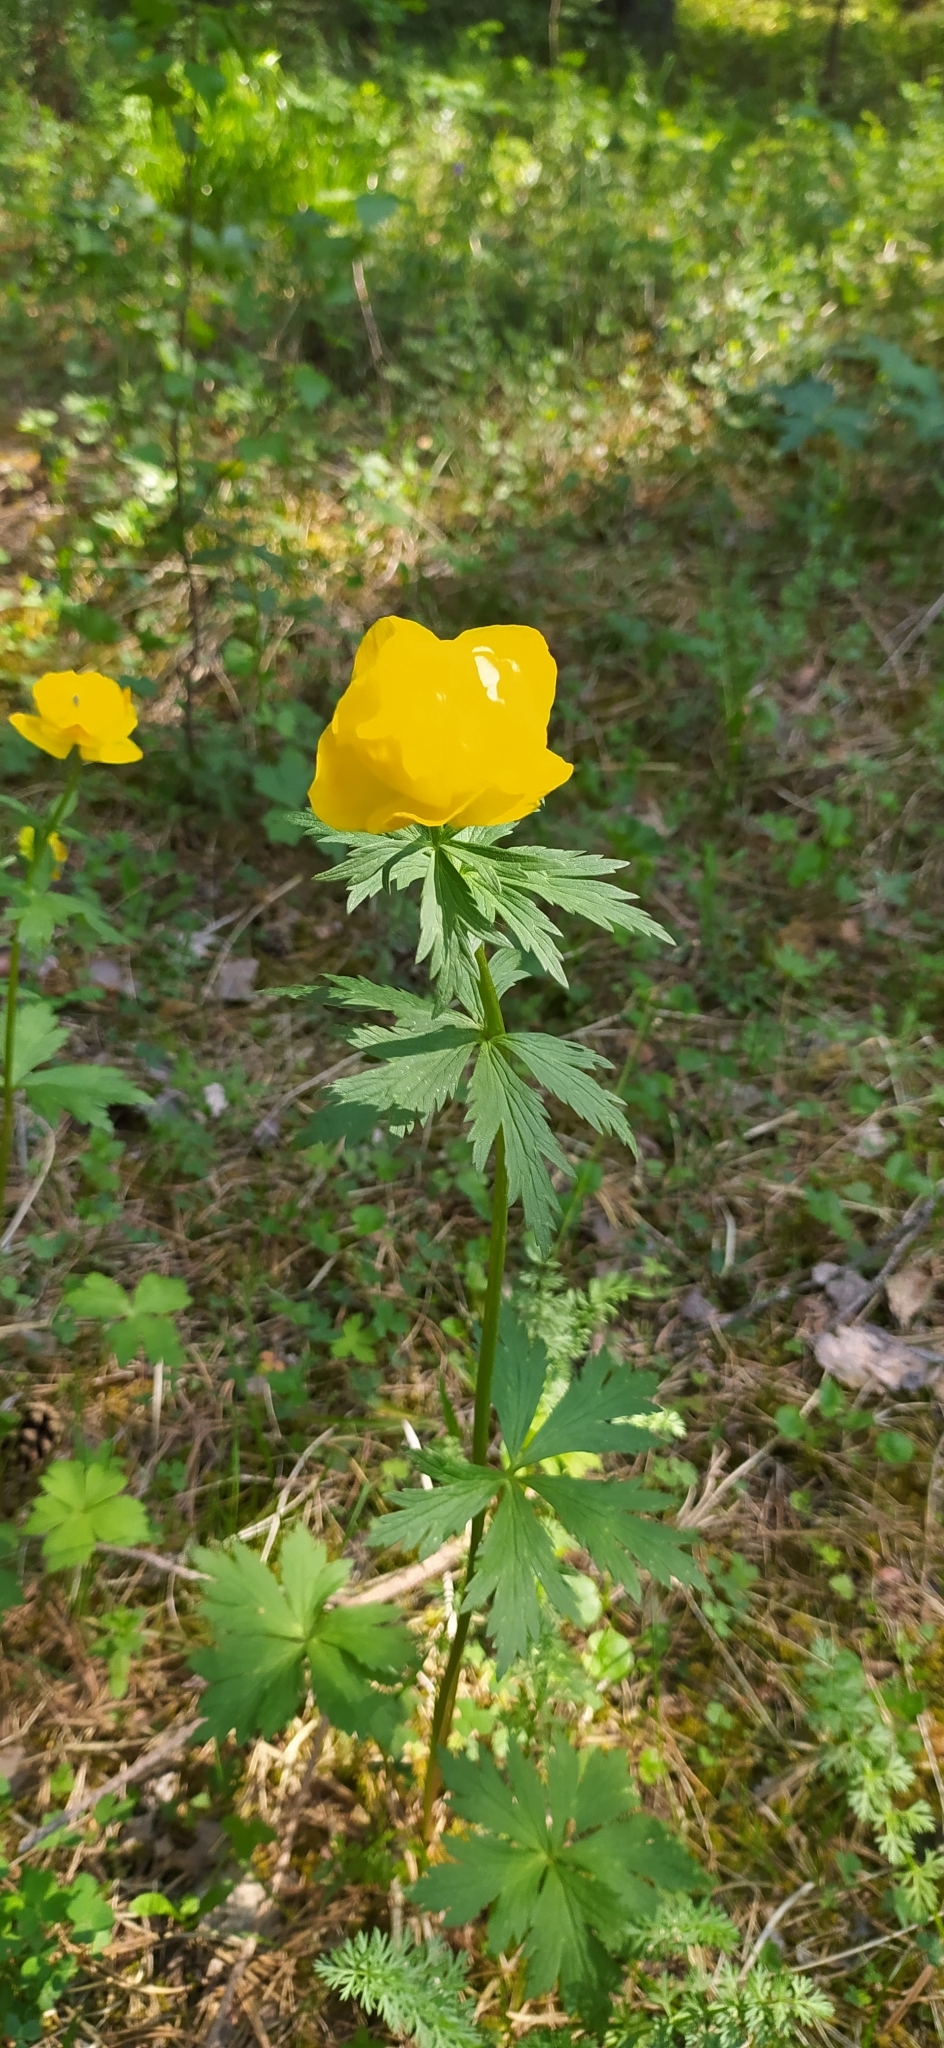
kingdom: Plantae
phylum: Tracheophyta
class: Magnoliopsida
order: Ranunculales
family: Ranunculaceae
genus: Trollius
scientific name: Trollius europaeus
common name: European globeflower
